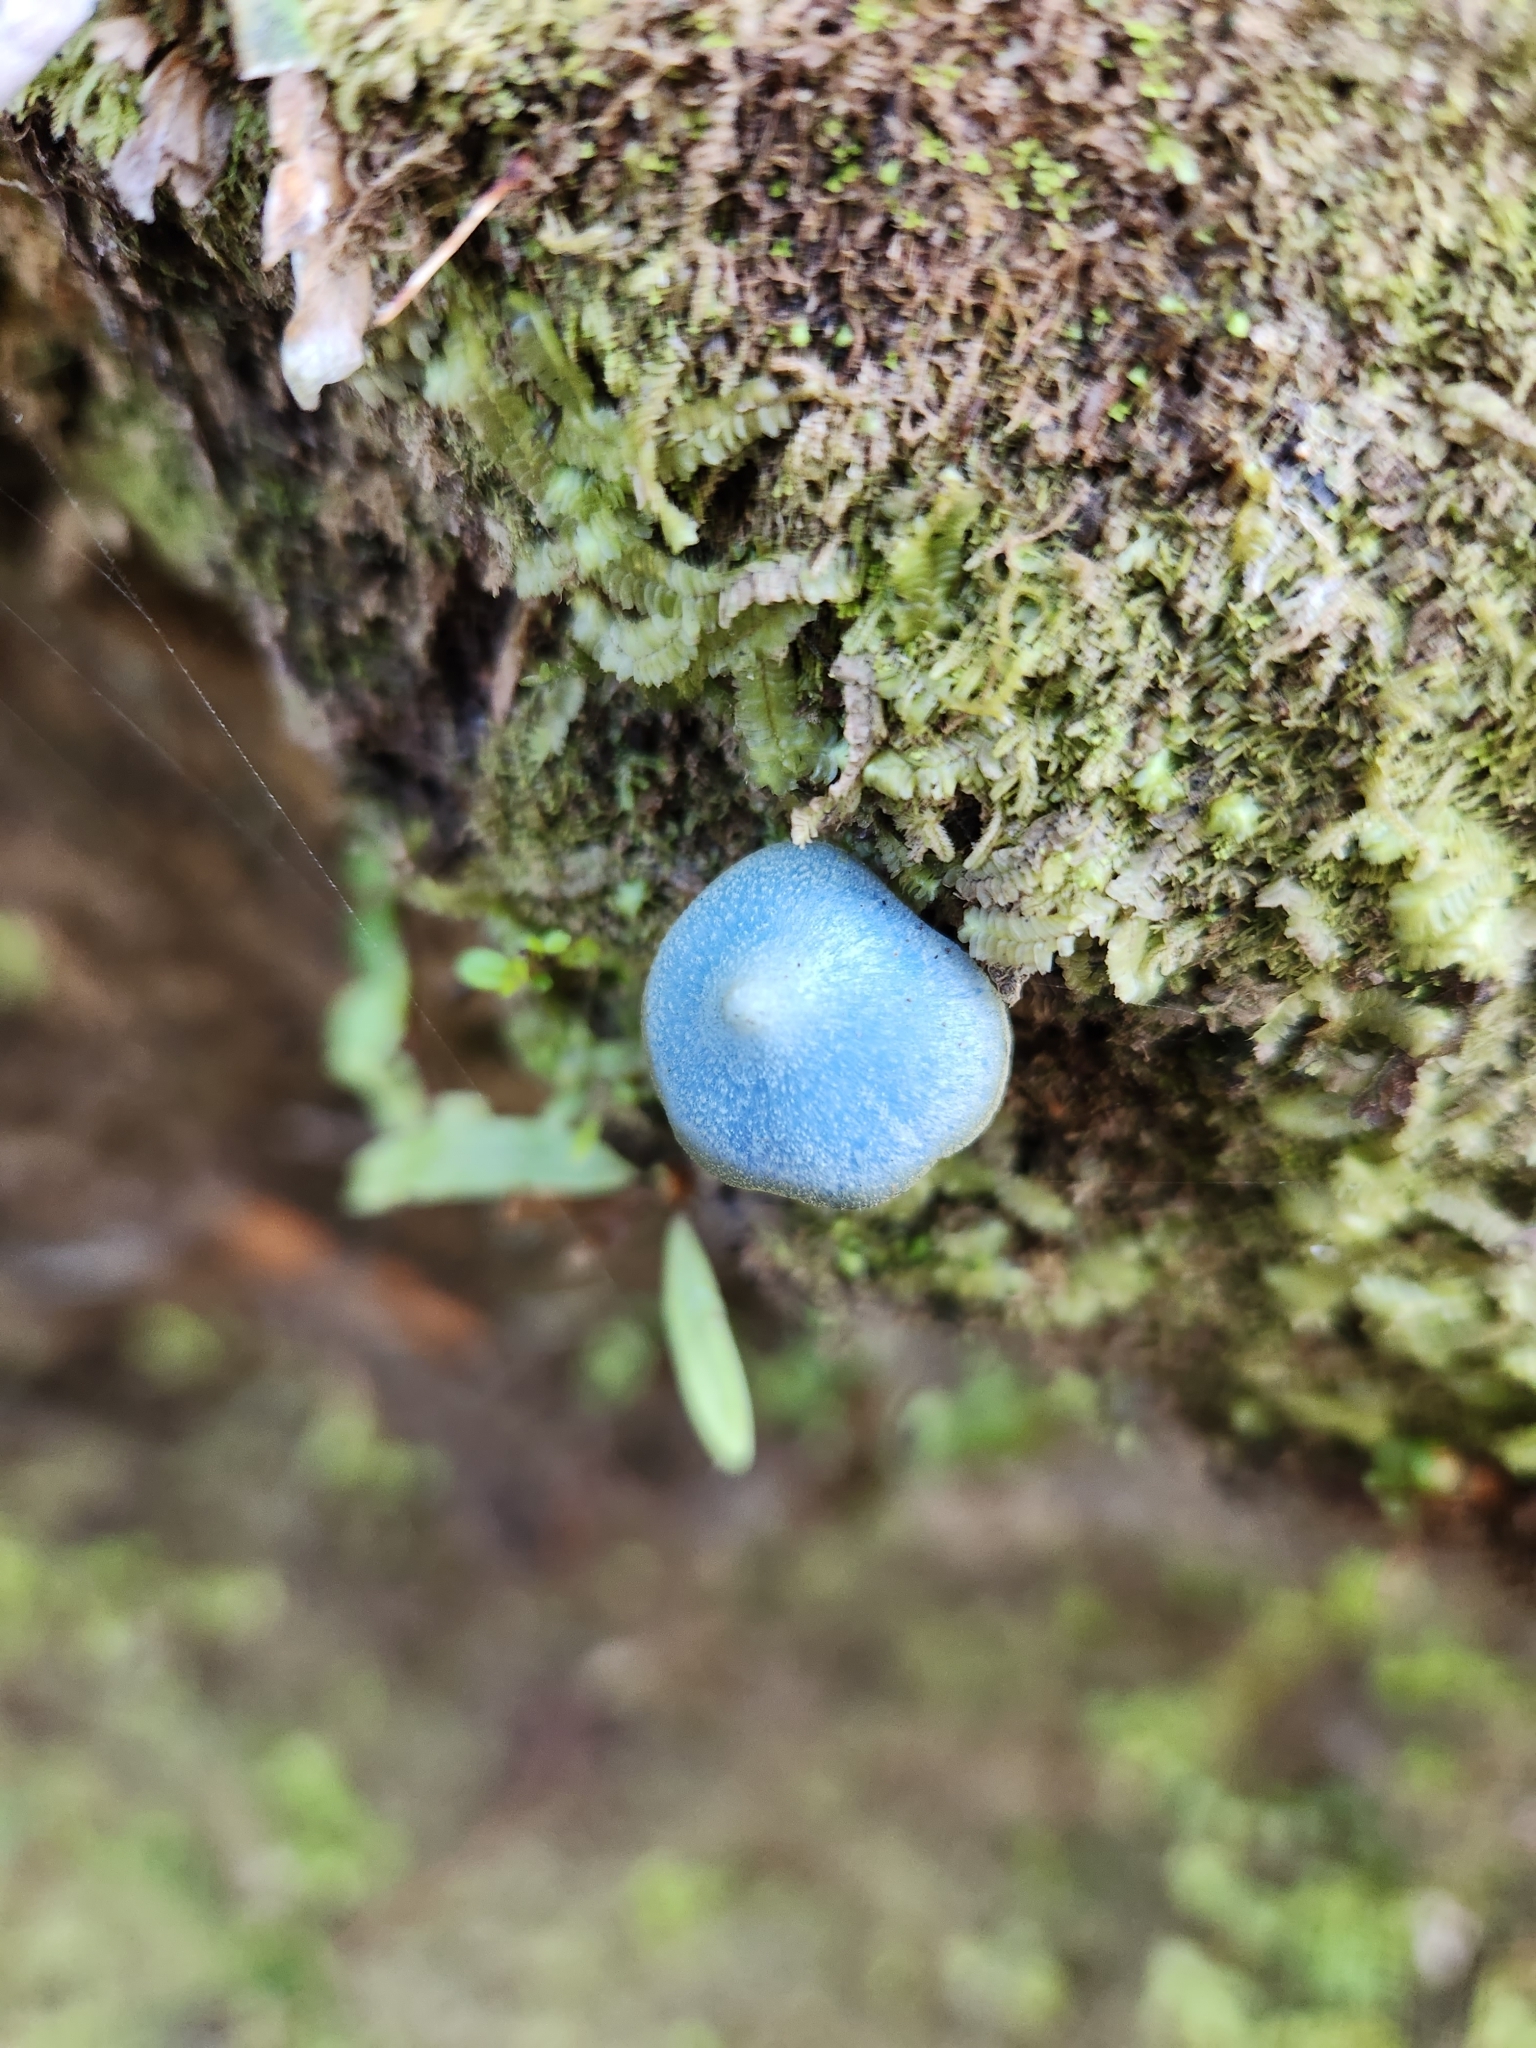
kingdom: Fungi
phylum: Basidiomycota
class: Agaricomycetes
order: Agaricales
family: Entolomataceae
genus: Entoloma
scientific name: Entoloma hochstetteri
